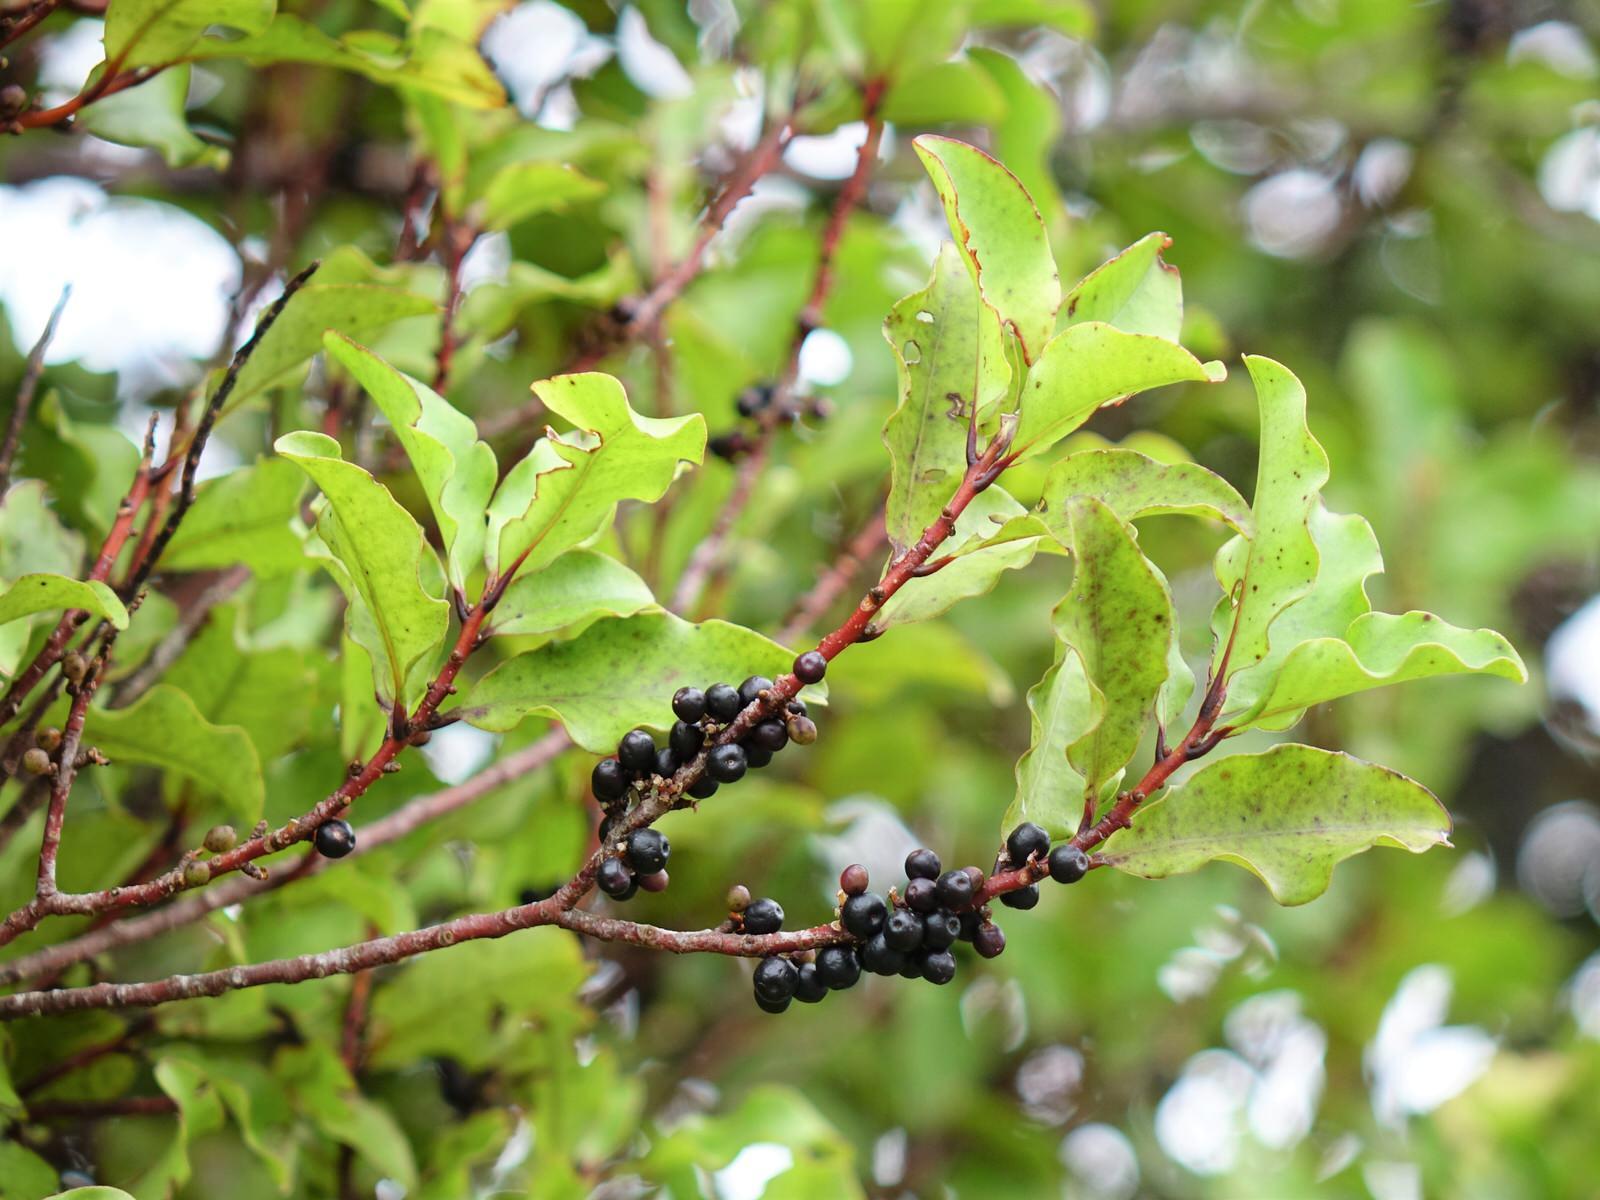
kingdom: Plantae
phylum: Tracheophyta
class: Magnoliopsida
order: Ericales
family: Primulaceae
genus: Myrsine
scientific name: Myrsine australis
